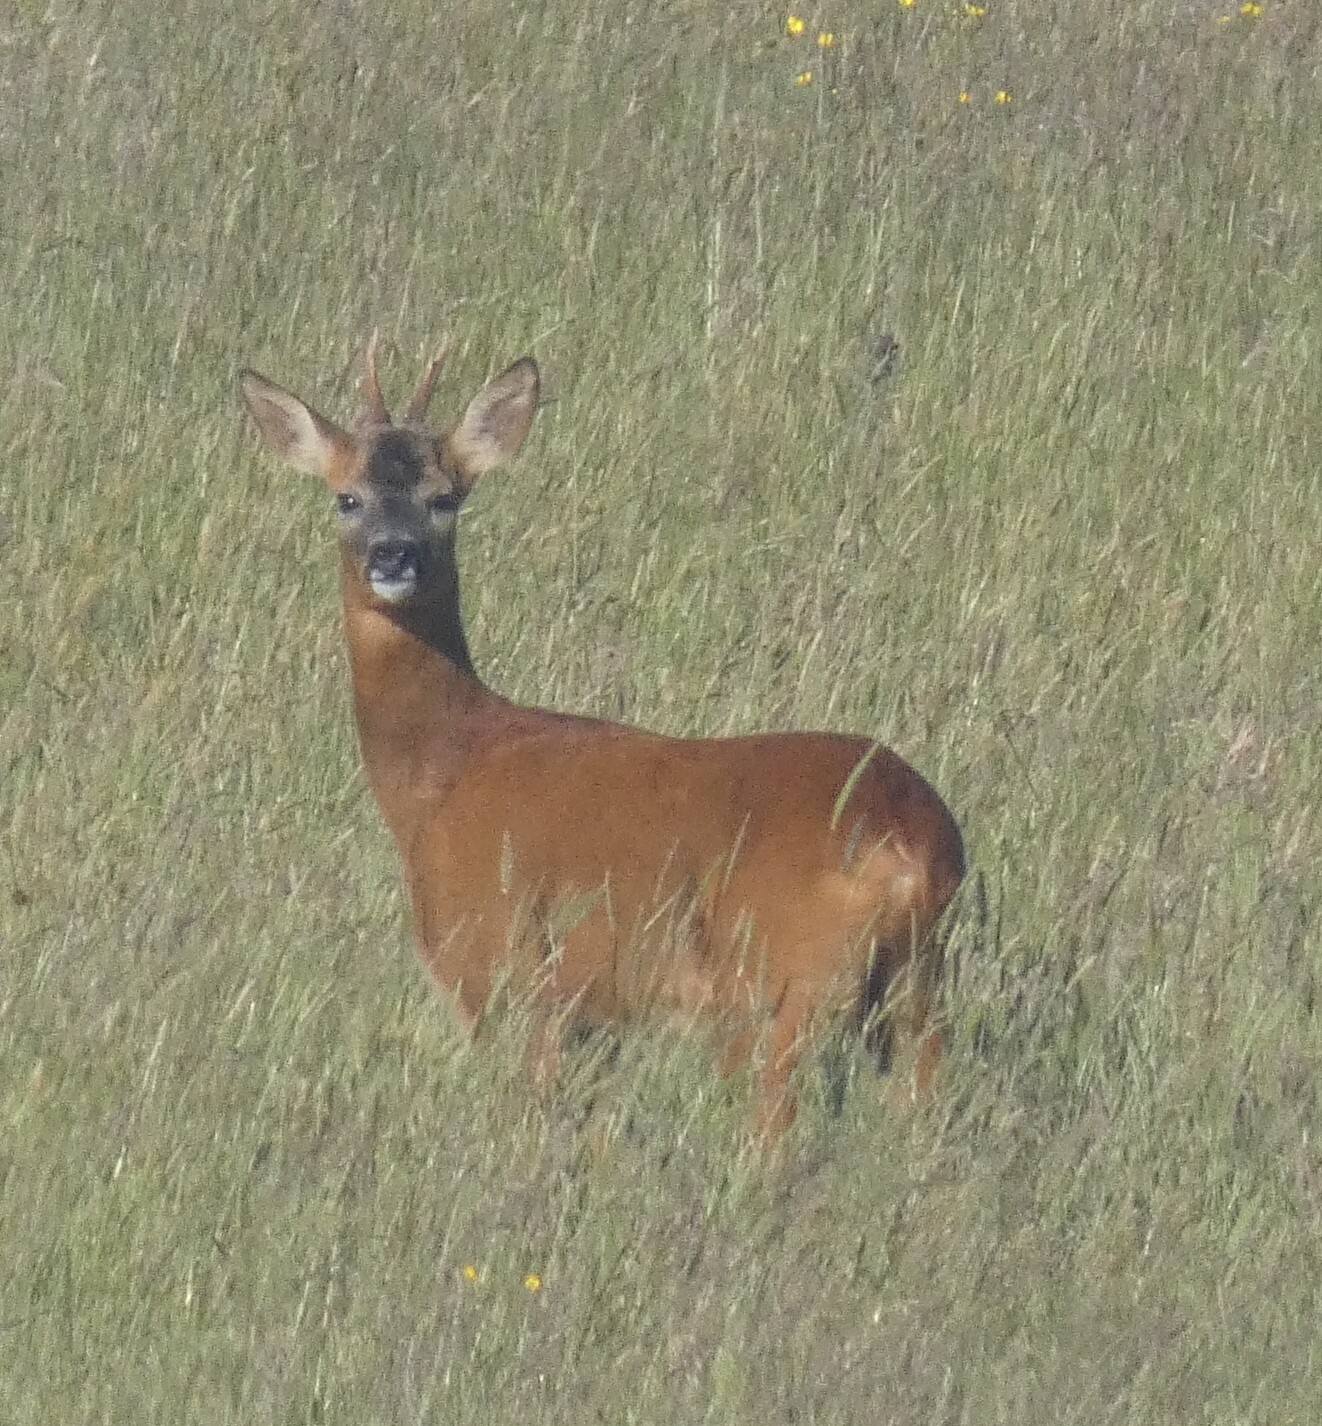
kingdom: Animalia
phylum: Chordata
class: Mammalia
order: Artiodactyla
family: Cervidae
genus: Capreolus
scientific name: Capreolus capreolus
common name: Western roe deer
